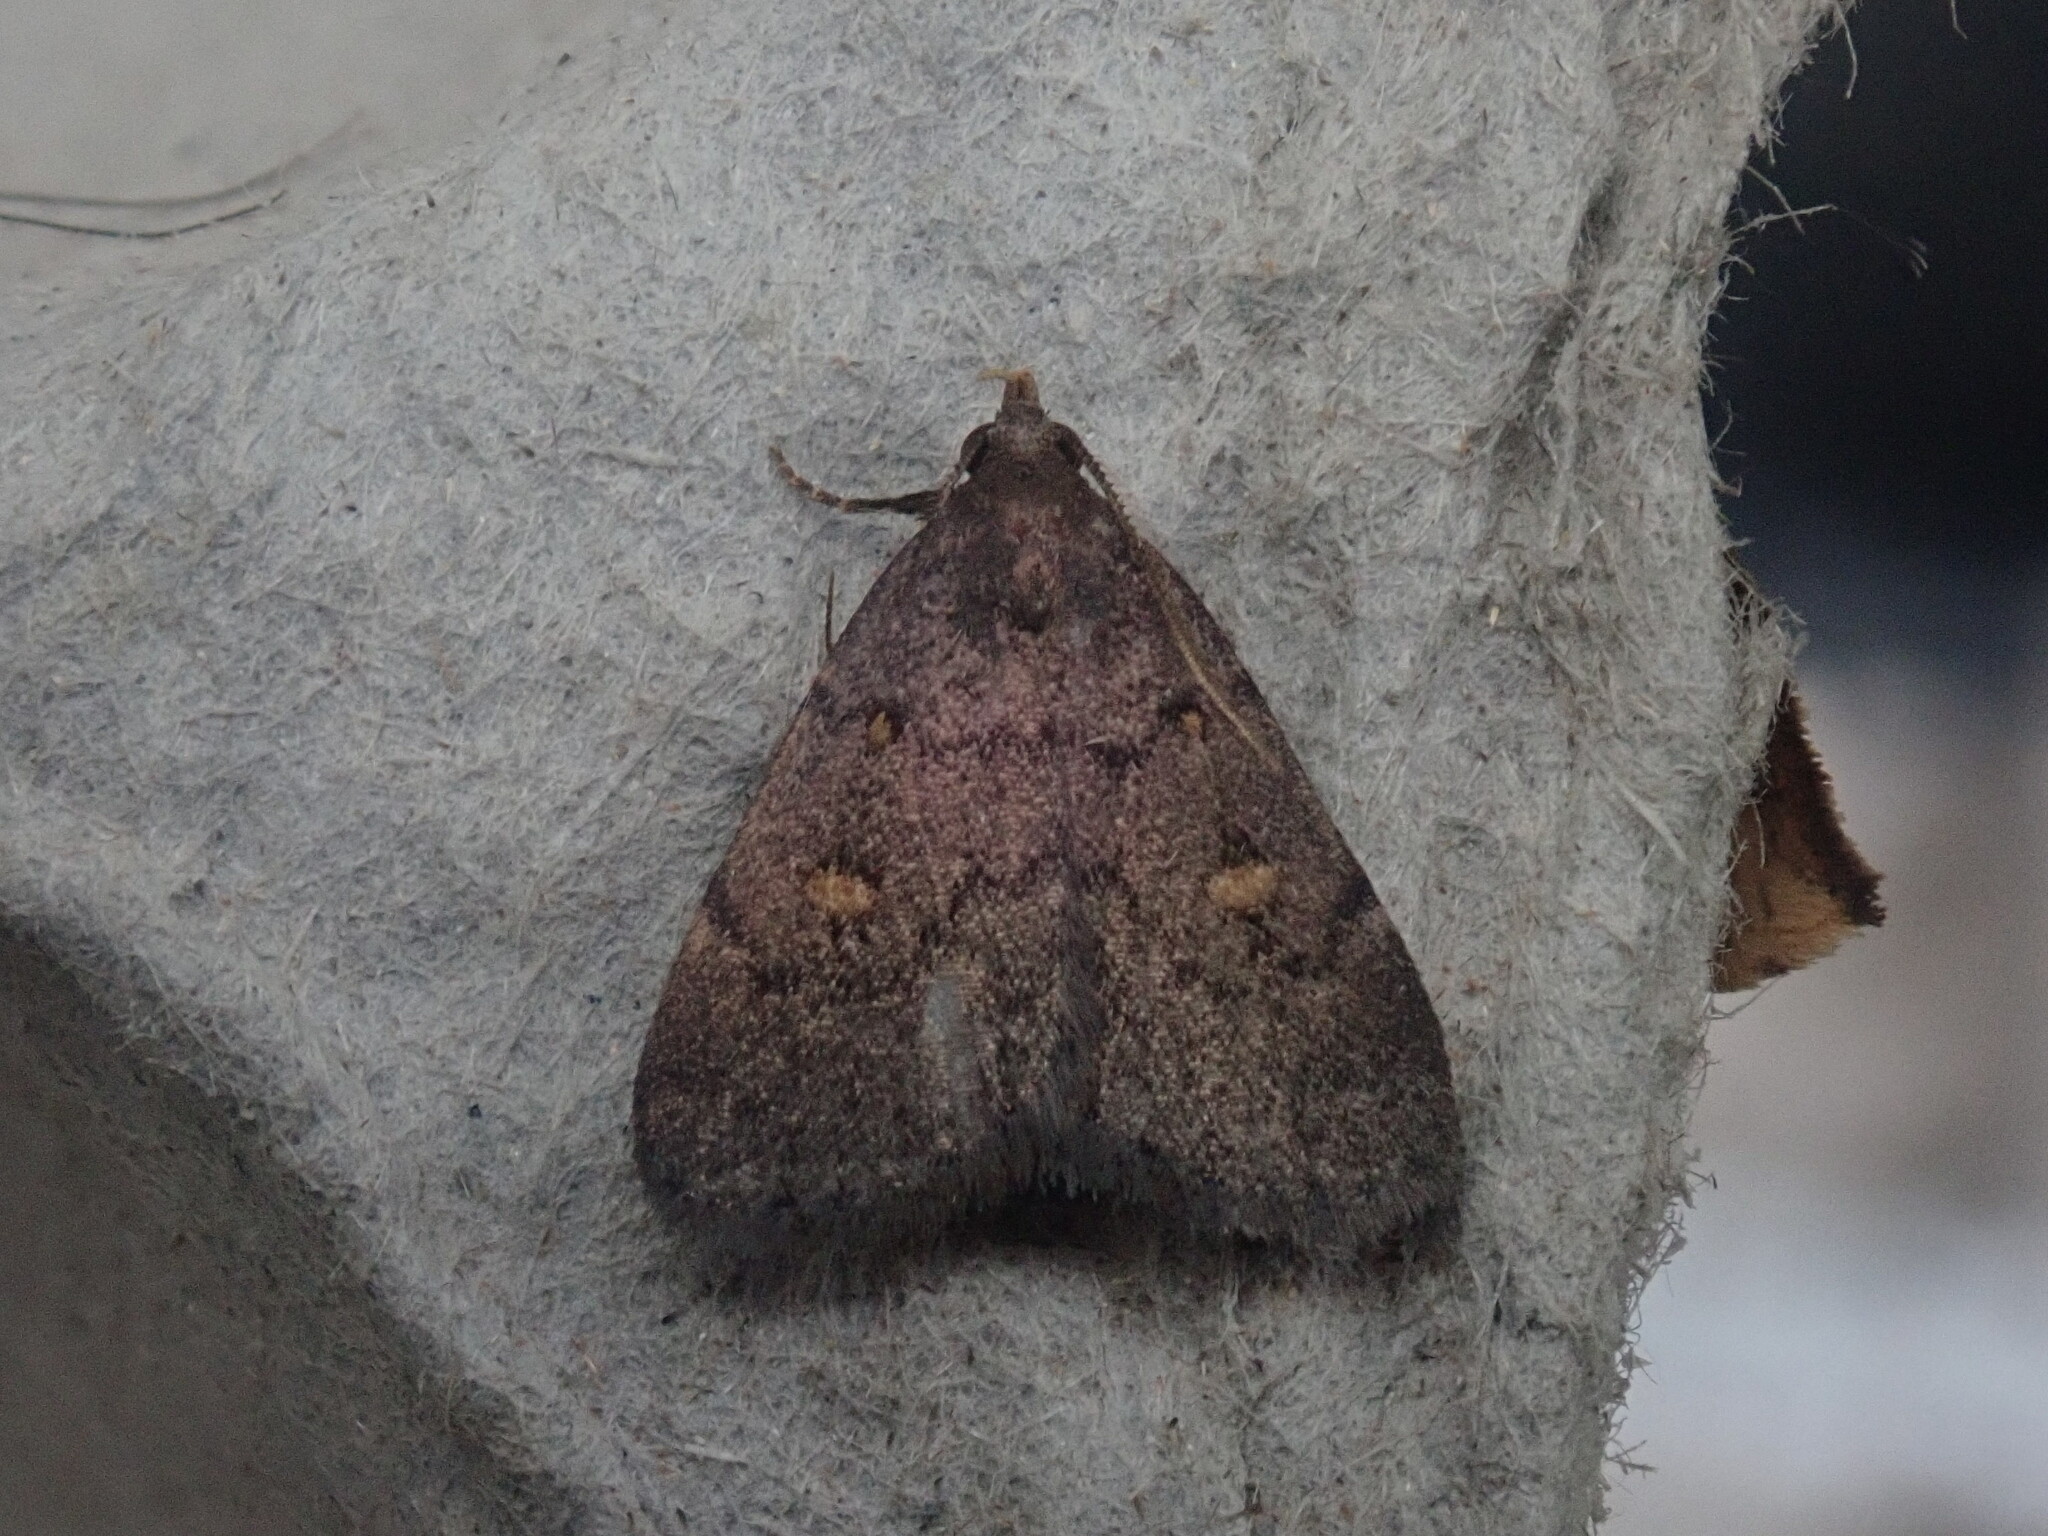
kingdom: Animalia
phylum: Arthropoda
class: Insecta
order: Lepidoptera
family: Erebidae
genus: Idia
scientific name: Idia diminuendis
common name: Orange-spotted idia moth
